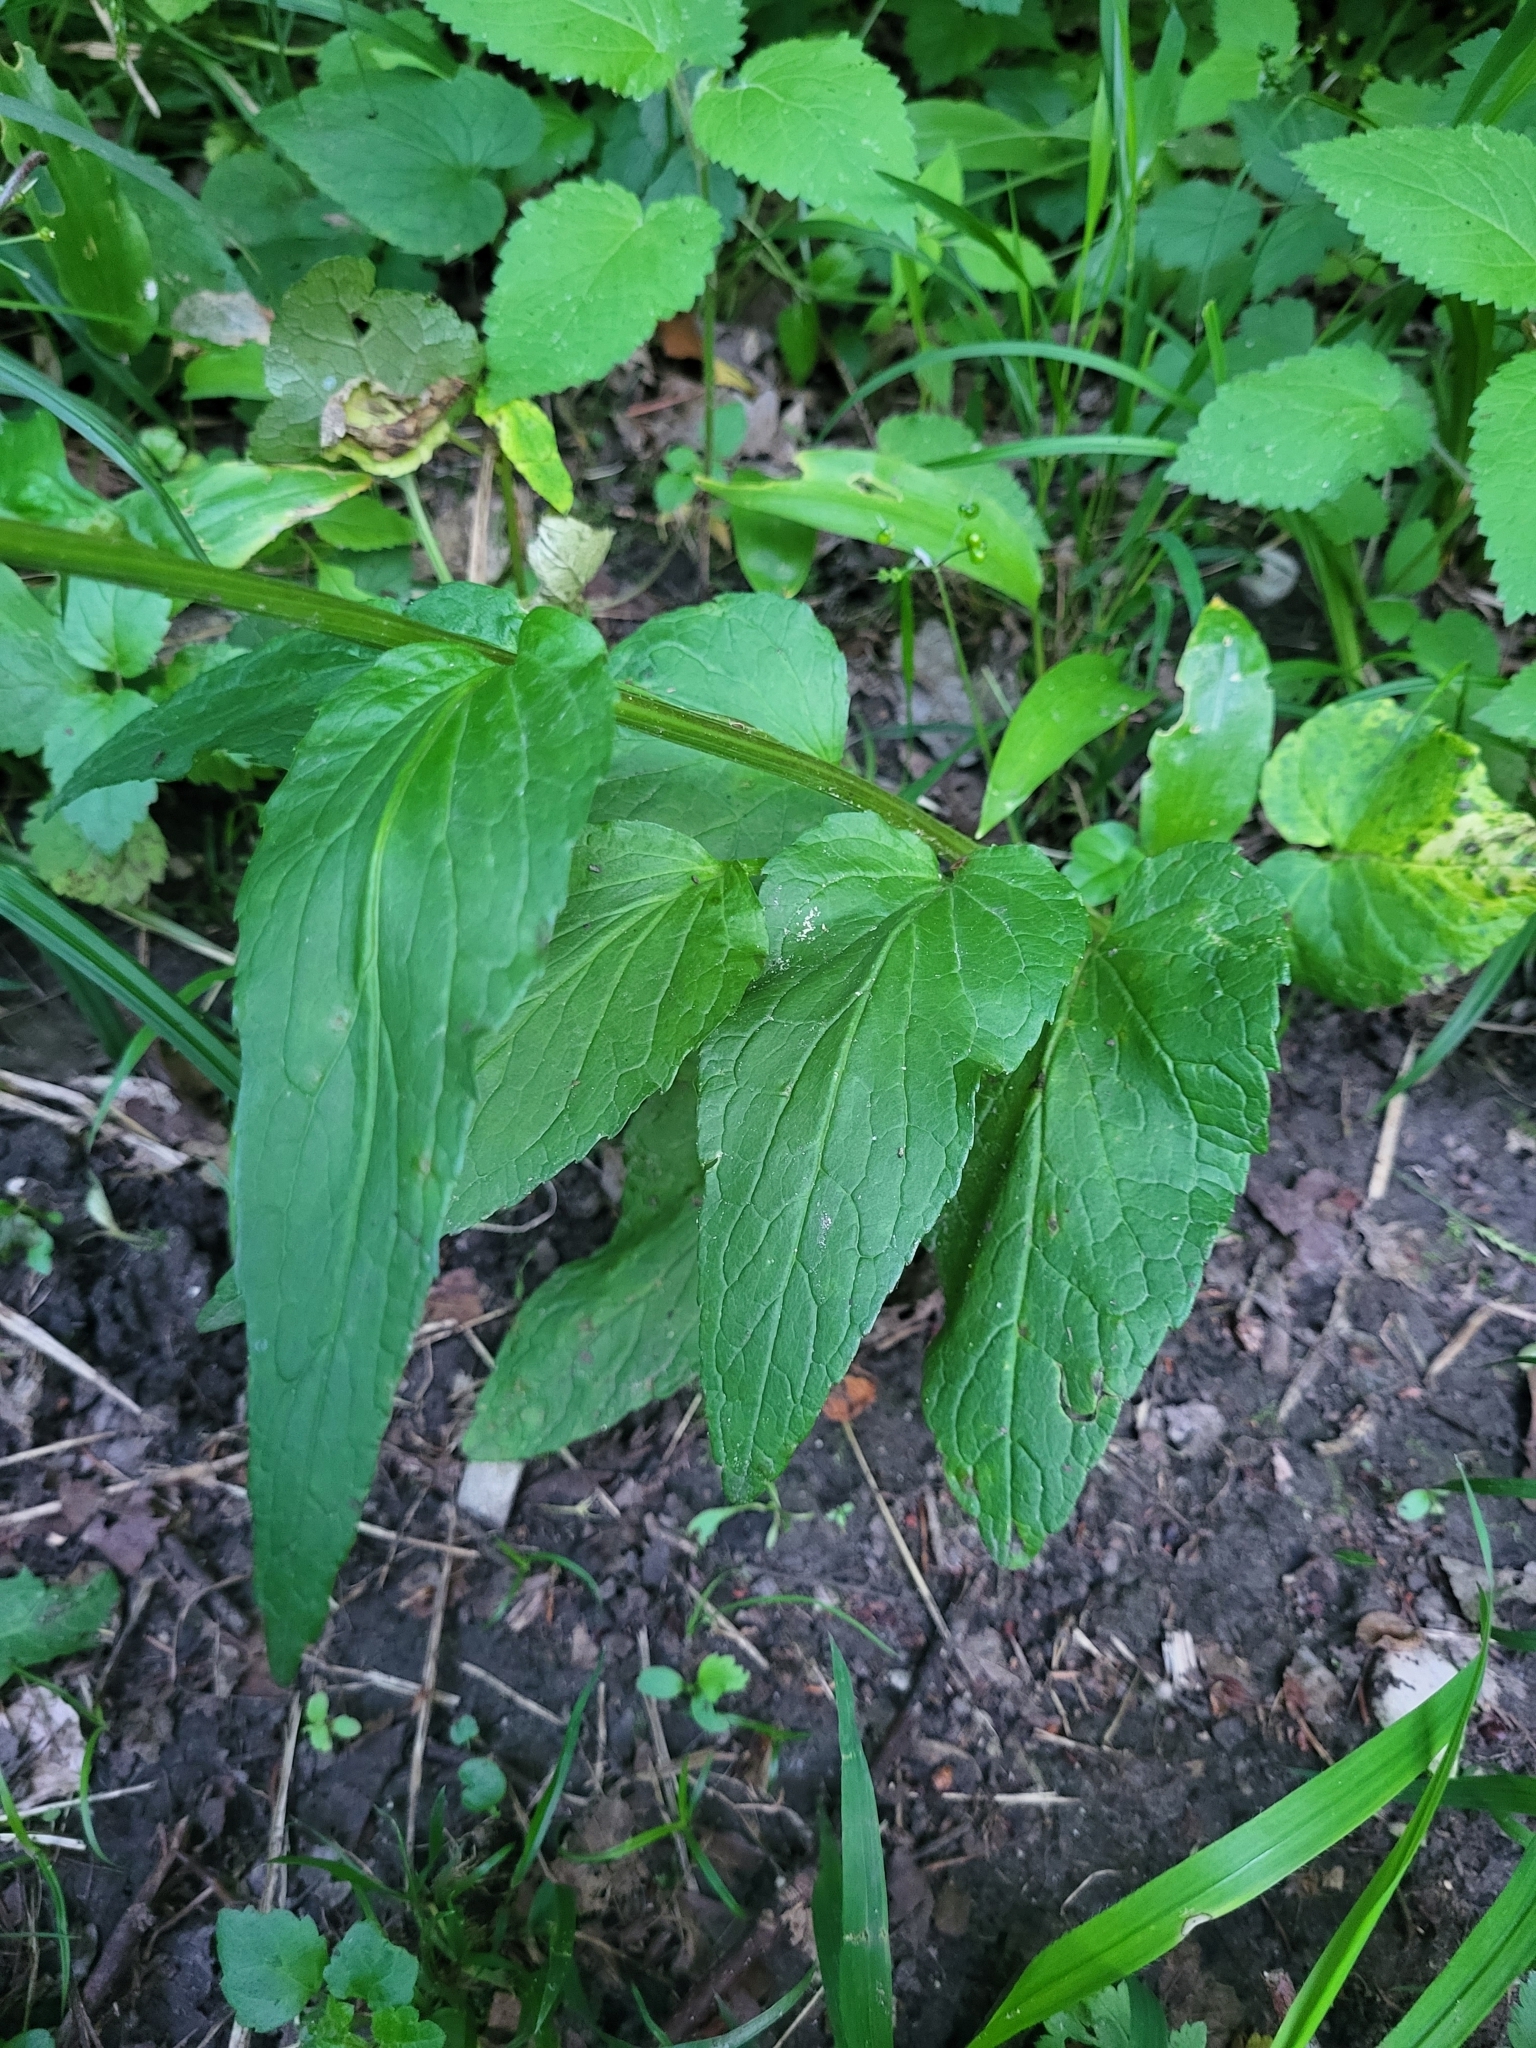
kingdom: Plantae
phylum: Tracheophyta
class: Magnoliopsida
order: Asterales
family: Campanulaceae
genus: Phyteuma
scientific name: Phyteuma spicatum
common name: Spiked rampion
